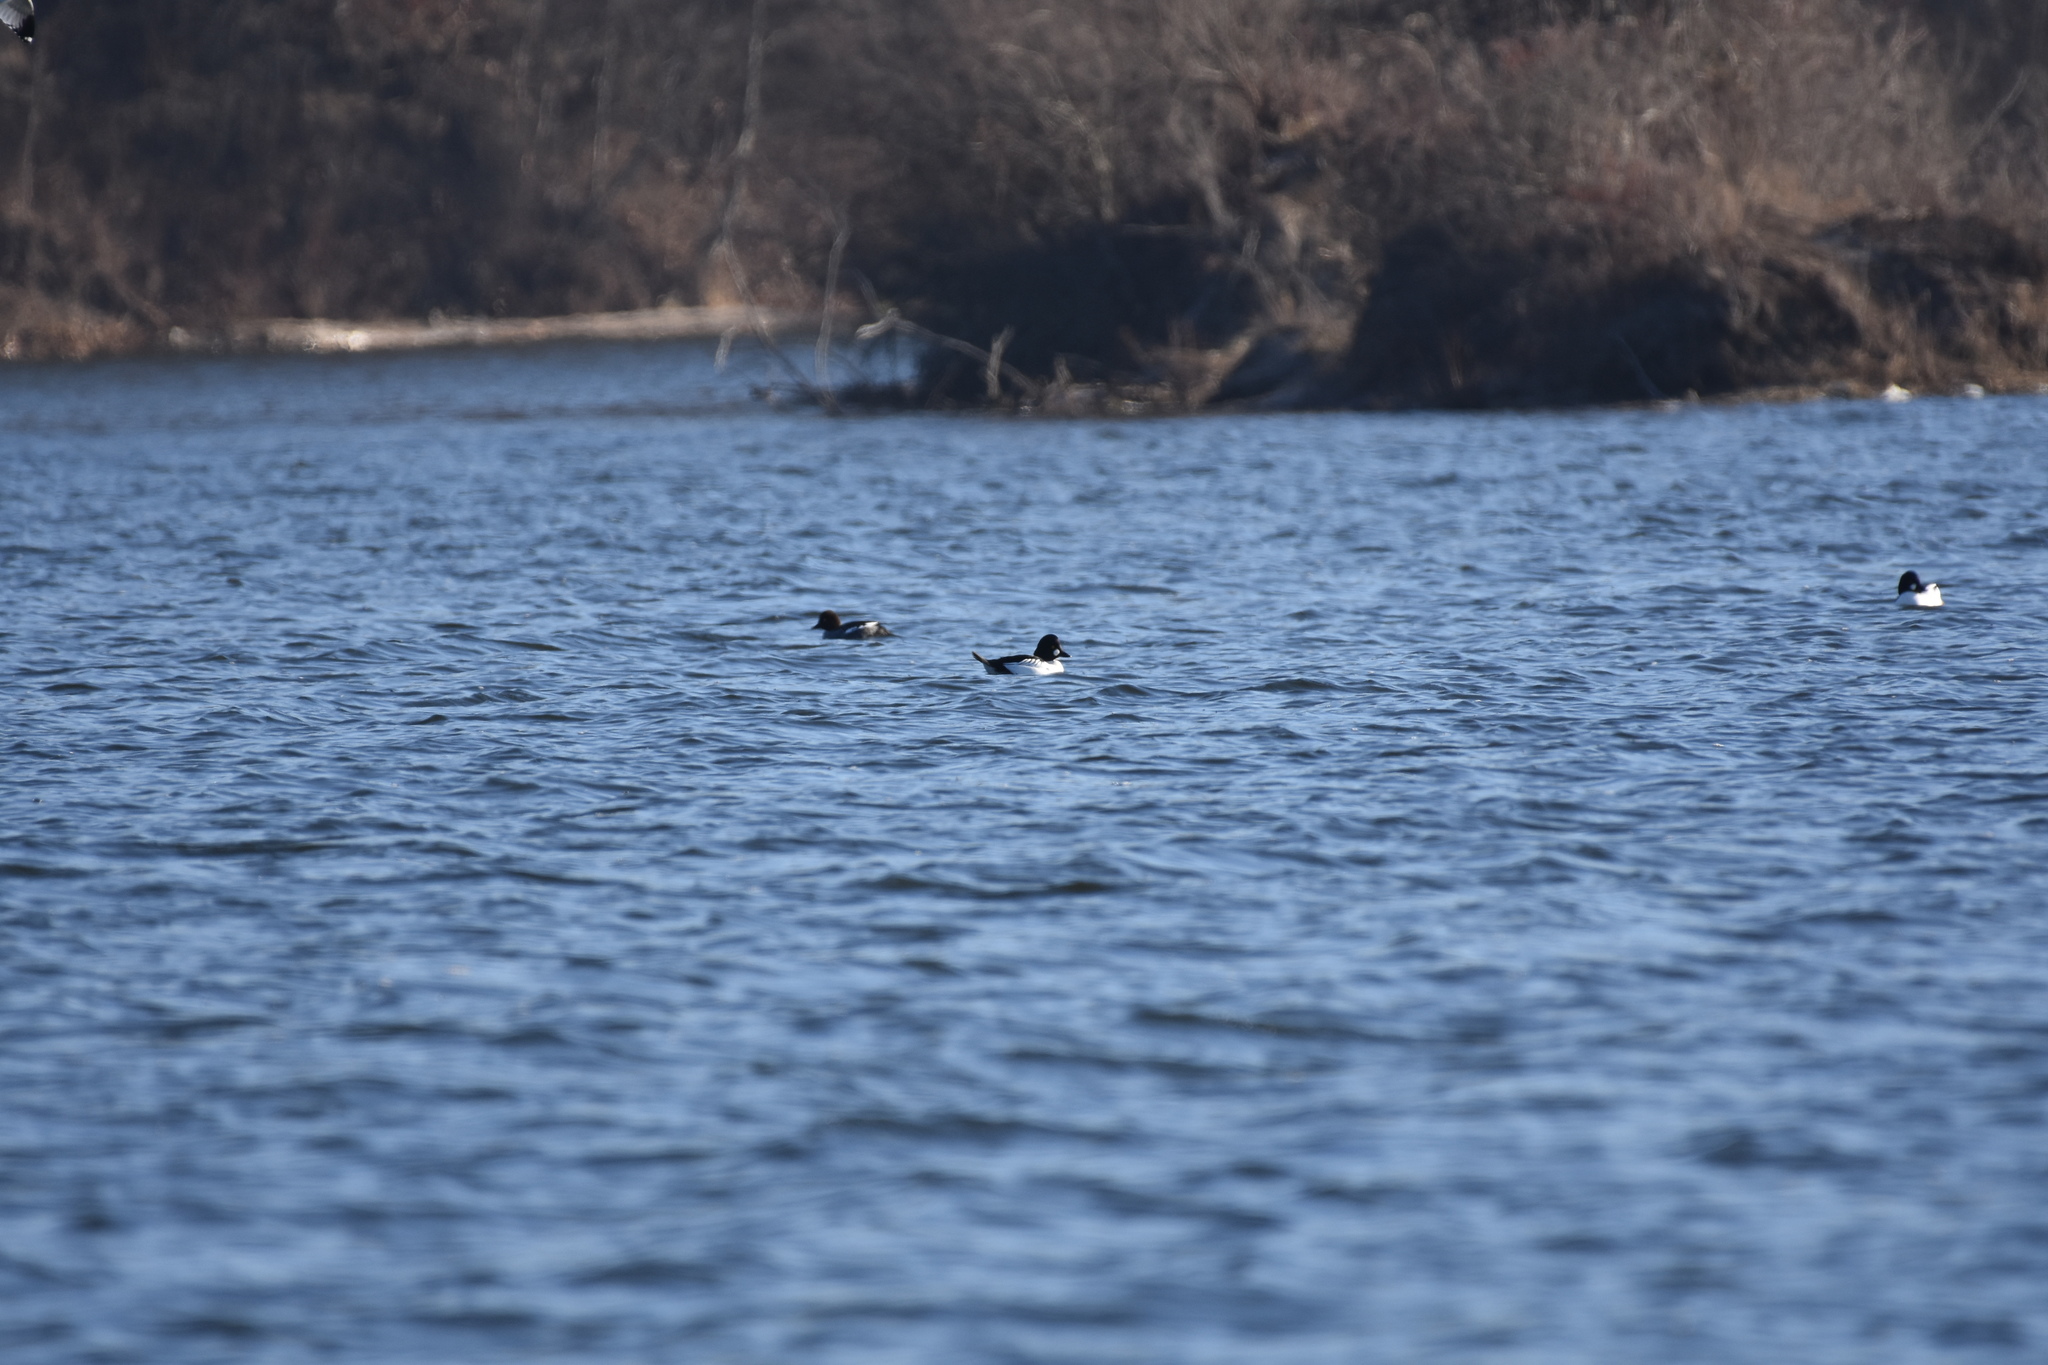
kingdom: Animalia
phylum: Chordata
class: Aves
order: Anseriformes
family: Anatidae
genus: Bucephala
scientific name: Bucephala clangula
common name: Common goldeneye
